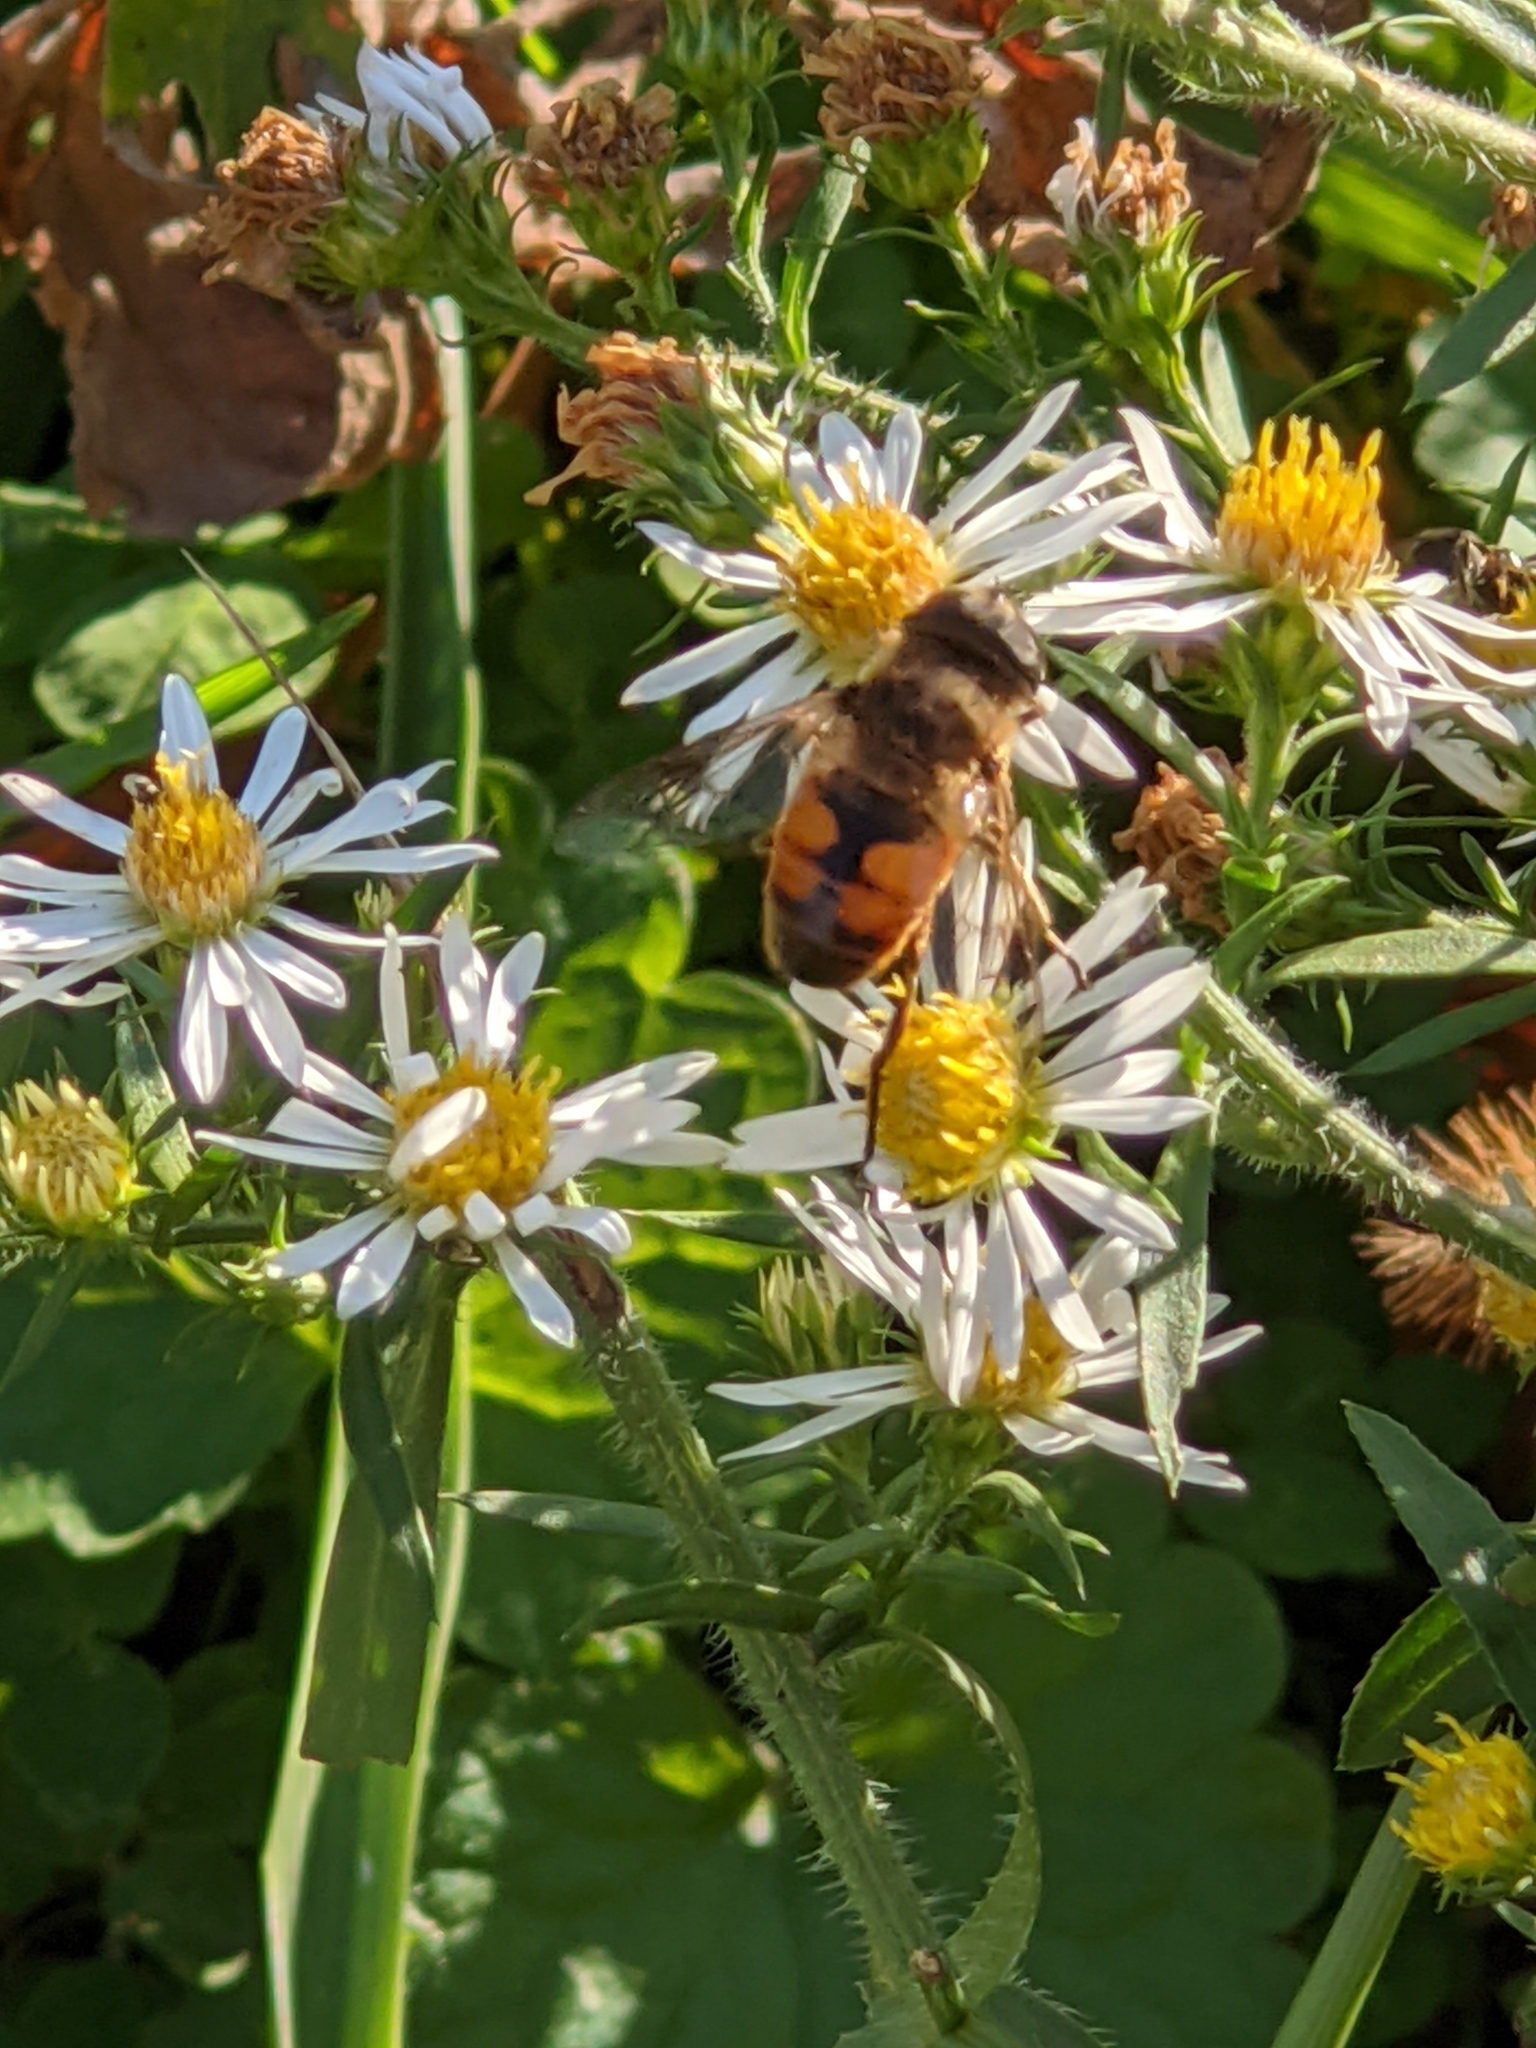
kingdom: Animalia
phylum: Arthropoda
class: Insecta
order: Diptera
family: Syrphidae
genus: Eristalis
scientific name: Eristalis tenax
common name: Drone fly
